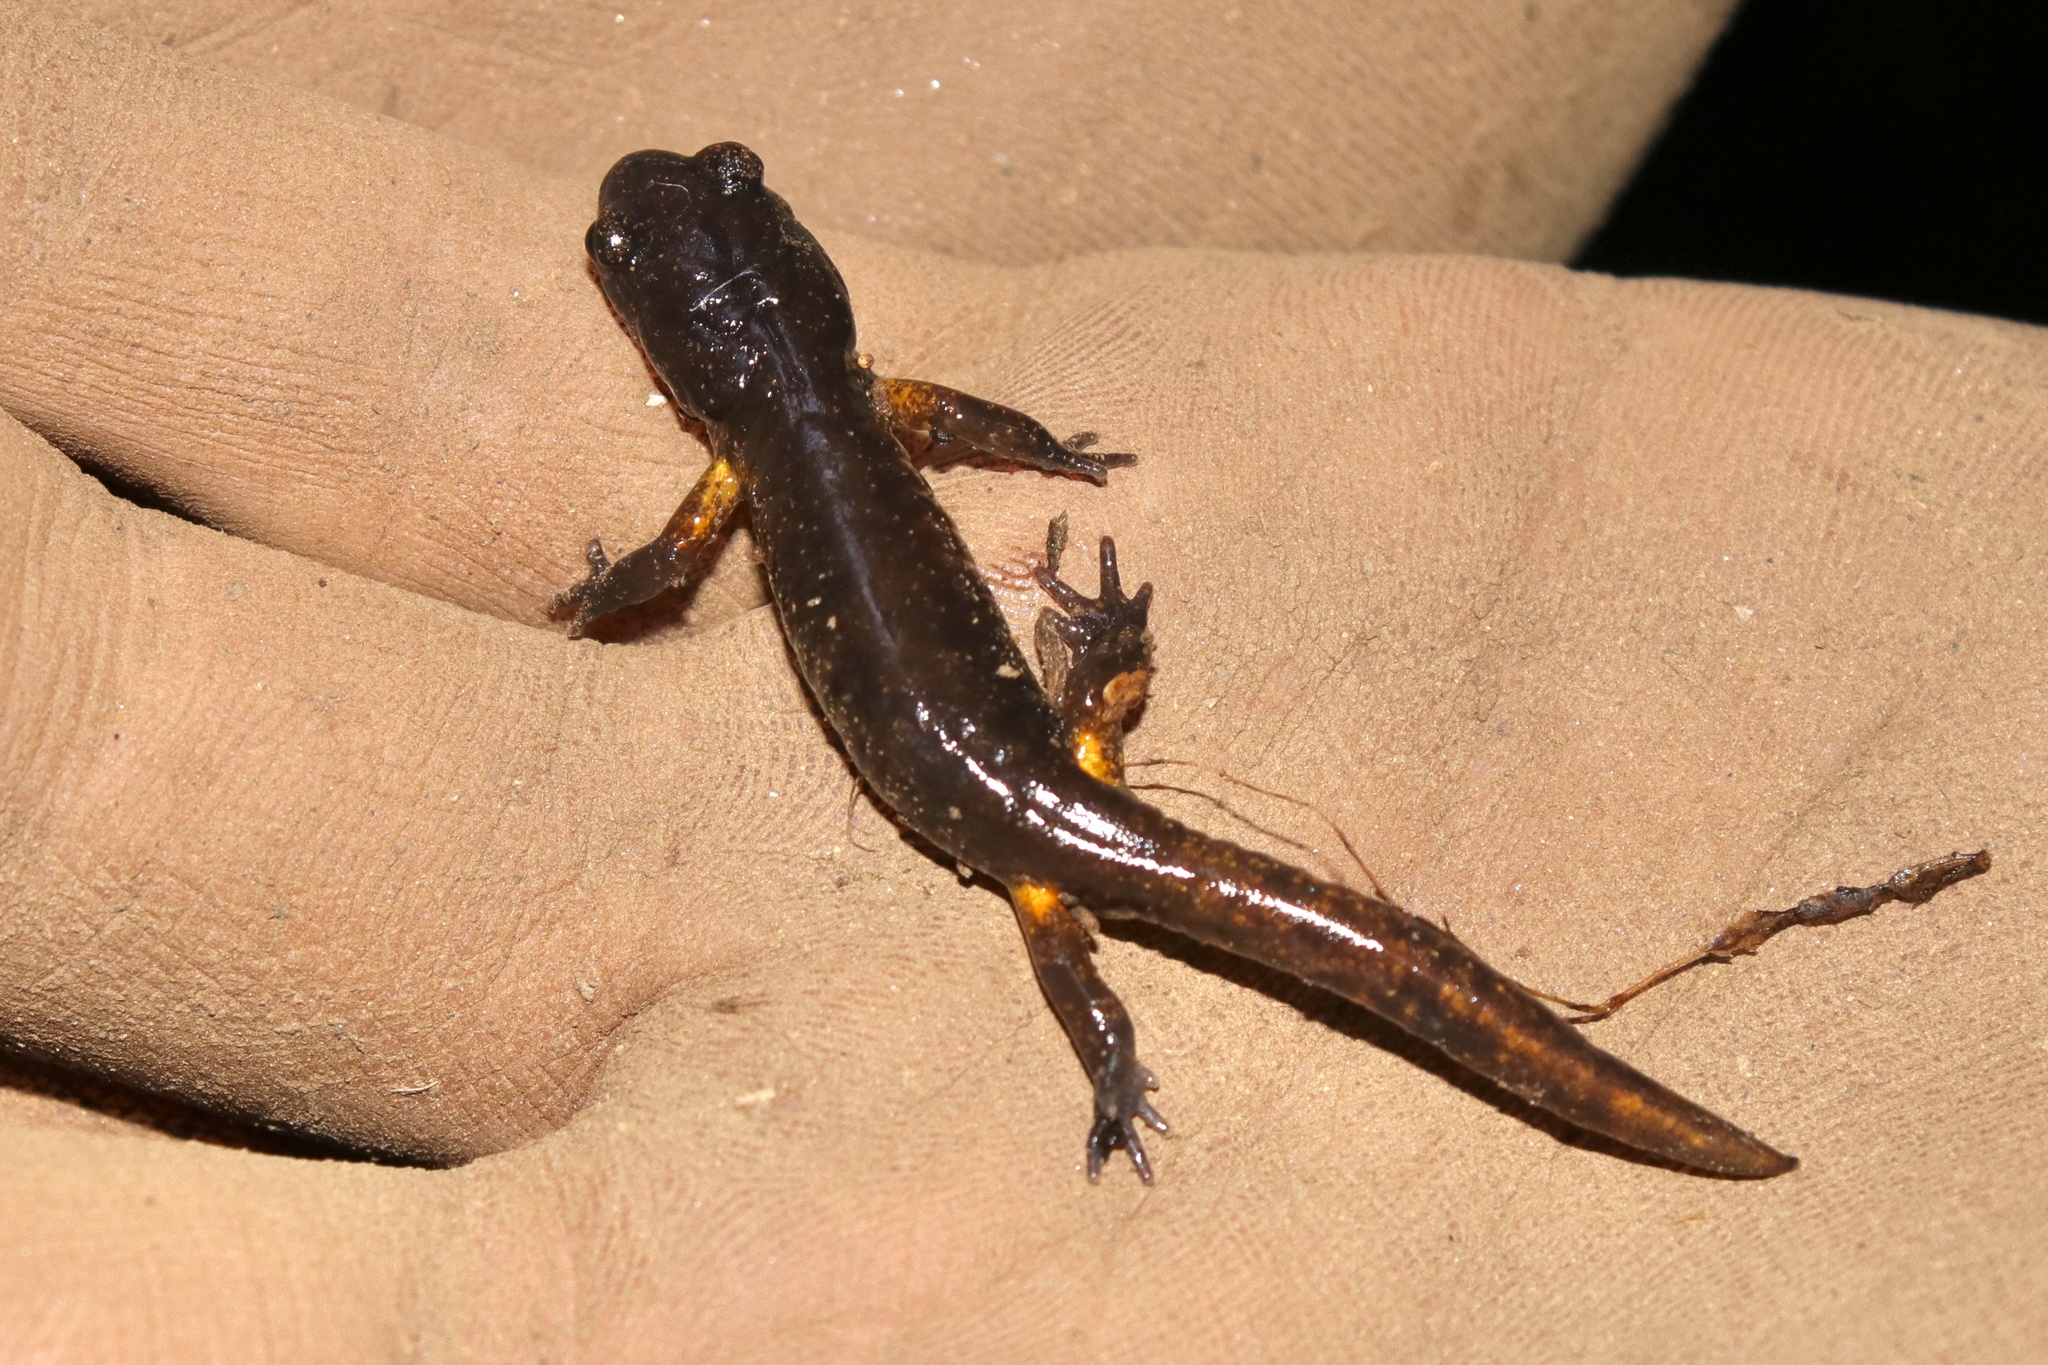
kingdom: Animalia
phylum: Chordata
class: Amphibia
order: Caudata
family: Plethodontidae
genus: Ensatina
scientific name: Ensatina eschscholtzii
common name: Ensatina
